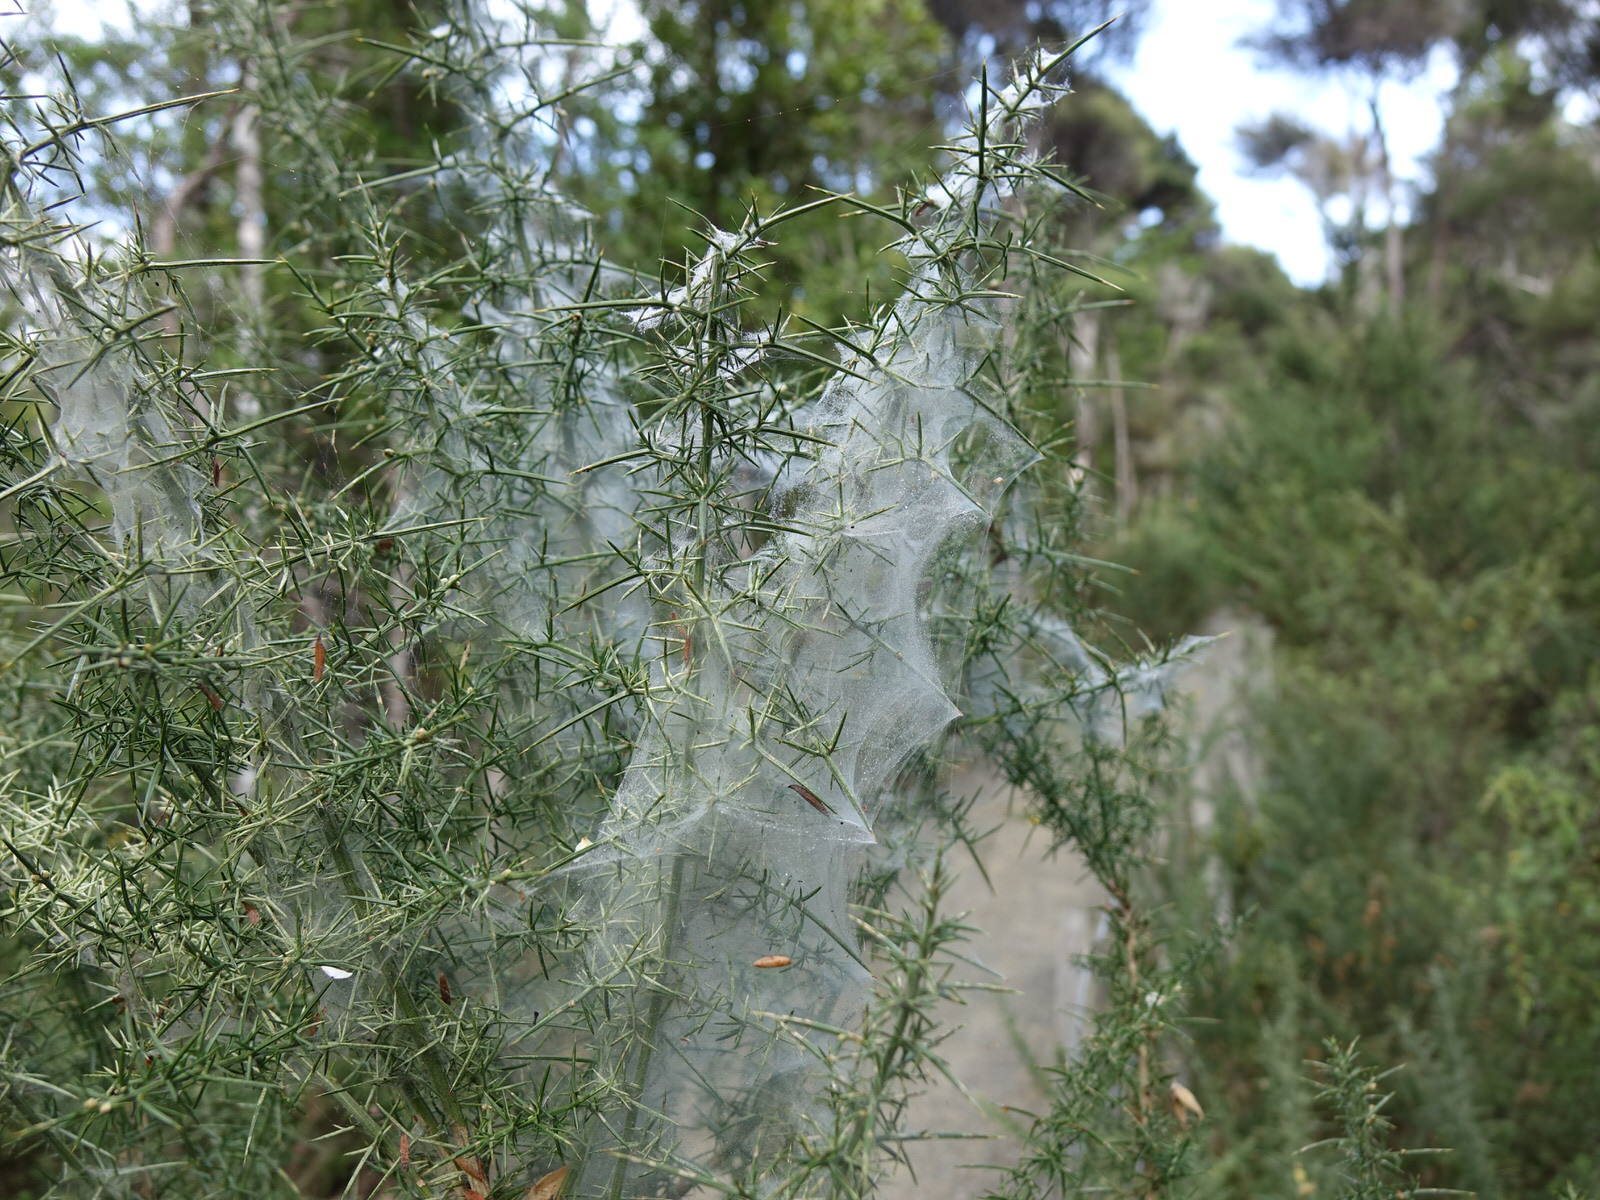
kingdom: Animalia
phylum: Arthropoda
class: Arachnida
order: Trombidiformes
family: Tetranychidae
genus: Tetranychus
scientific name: Tetranychus lintearius
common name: Gorse spider mite
